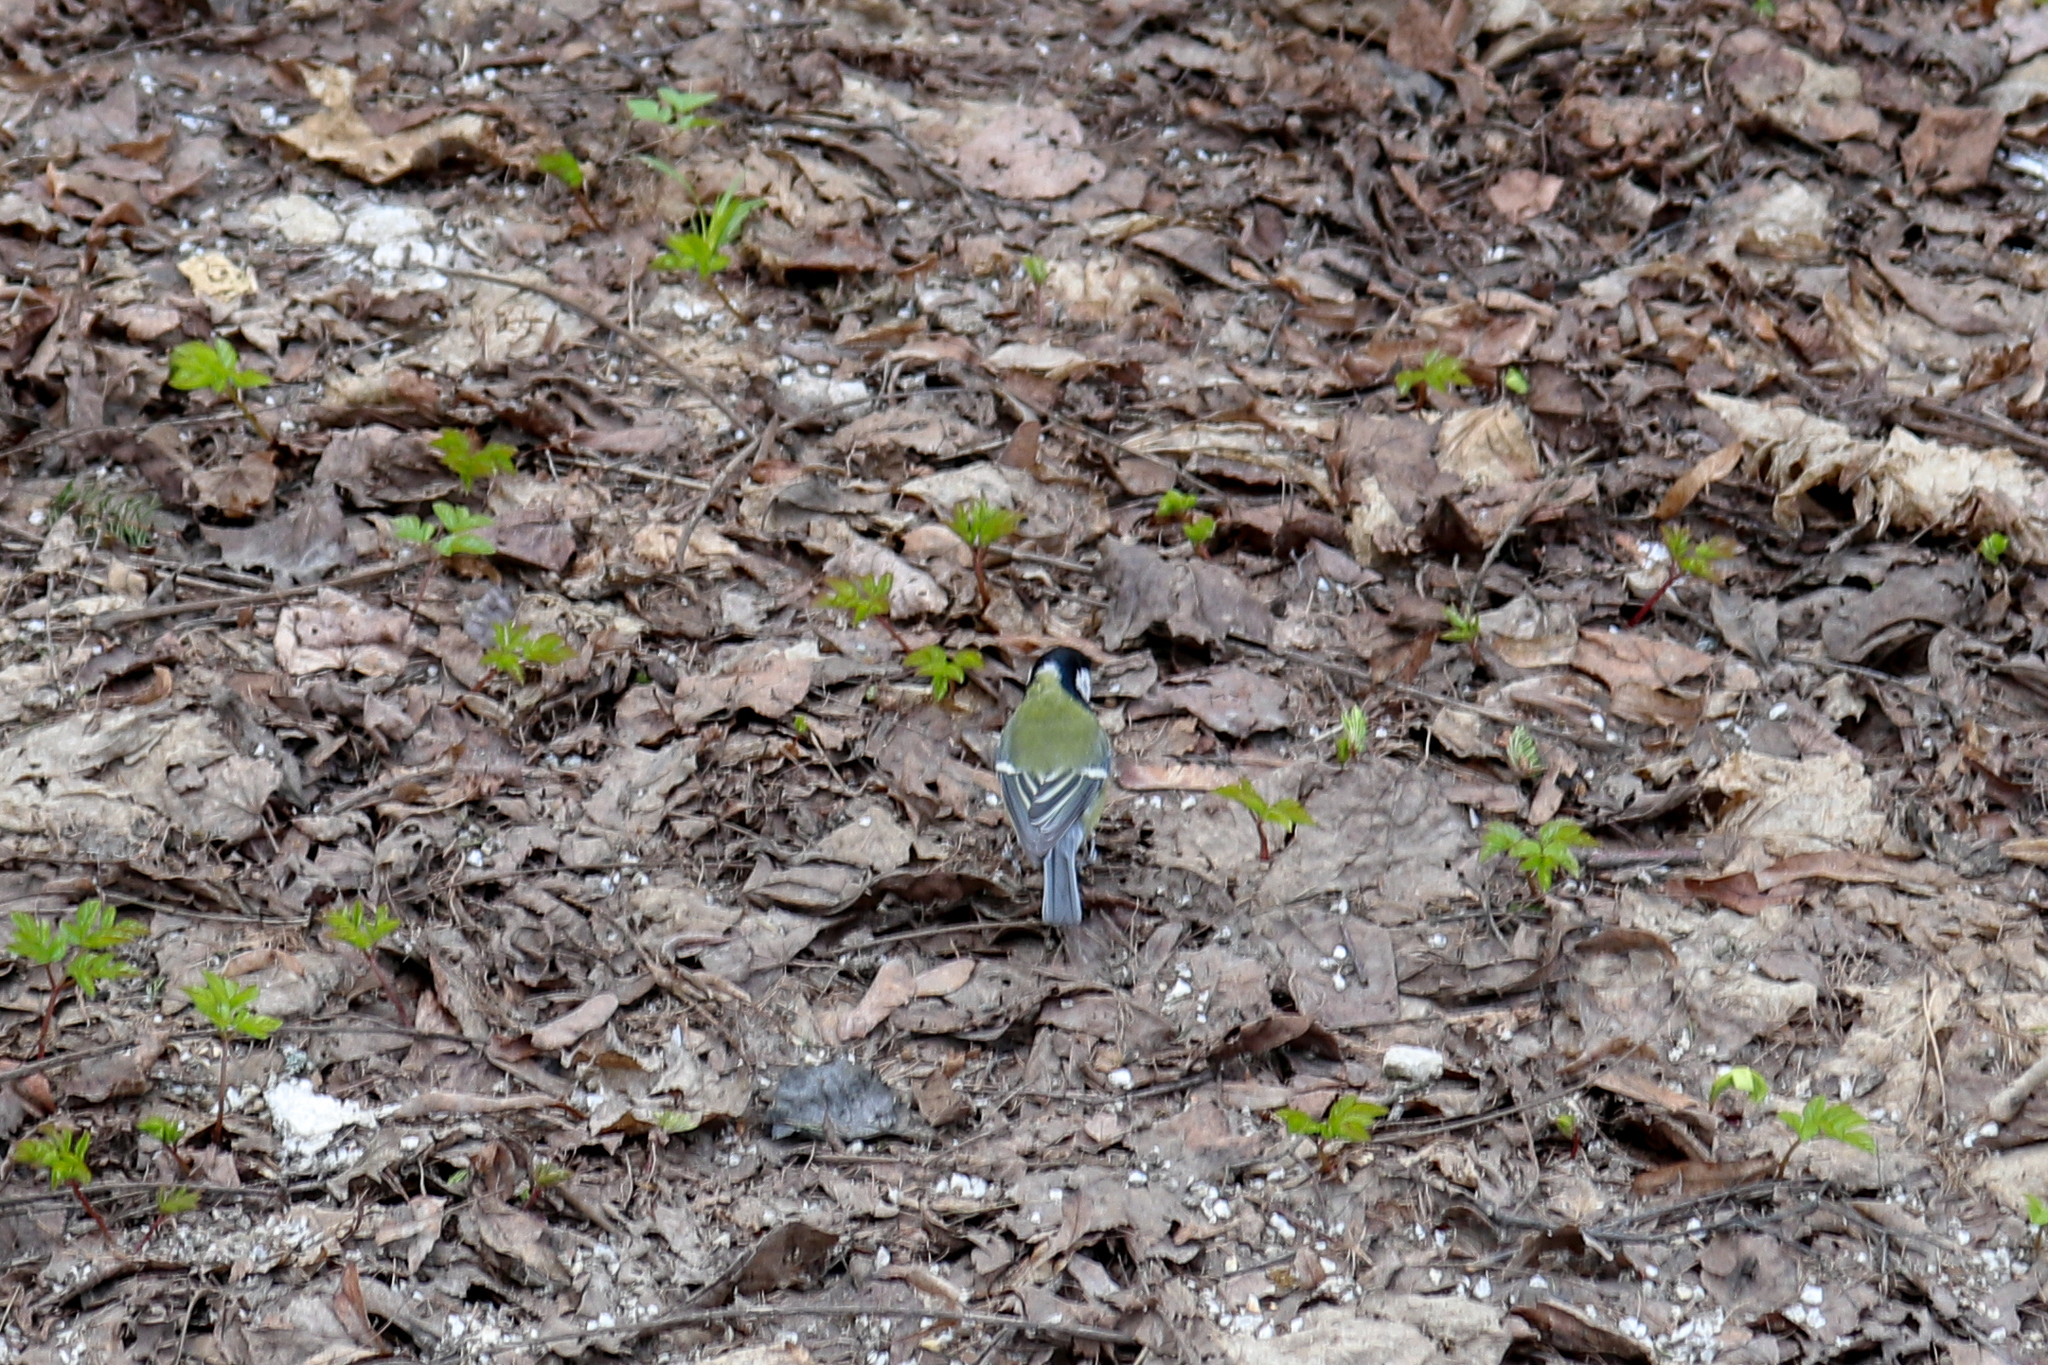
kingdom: Animalia
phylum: Chordata
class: Aves
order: Passeriformes
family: Paridae
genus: Parus
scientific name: Parus major
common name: Great tit
